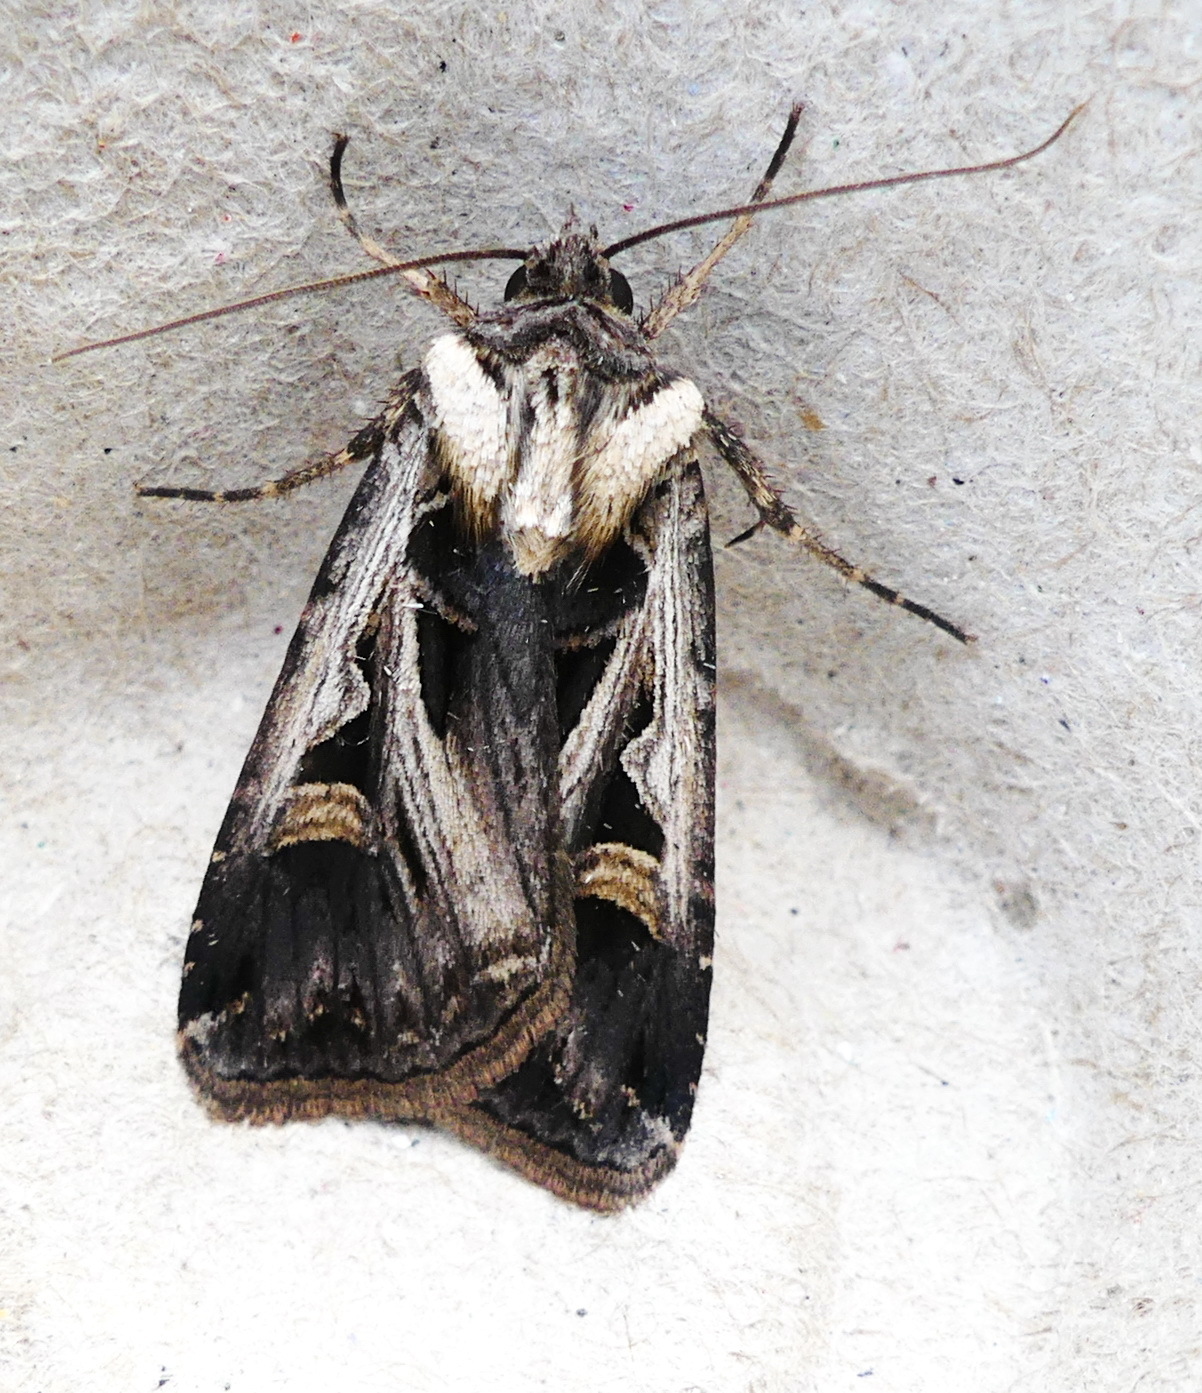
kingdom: Animalia
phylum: Arthropoda
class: Insecta
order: Lepidoptera
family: Noctuidae
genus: Feltia
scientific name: Feltia
